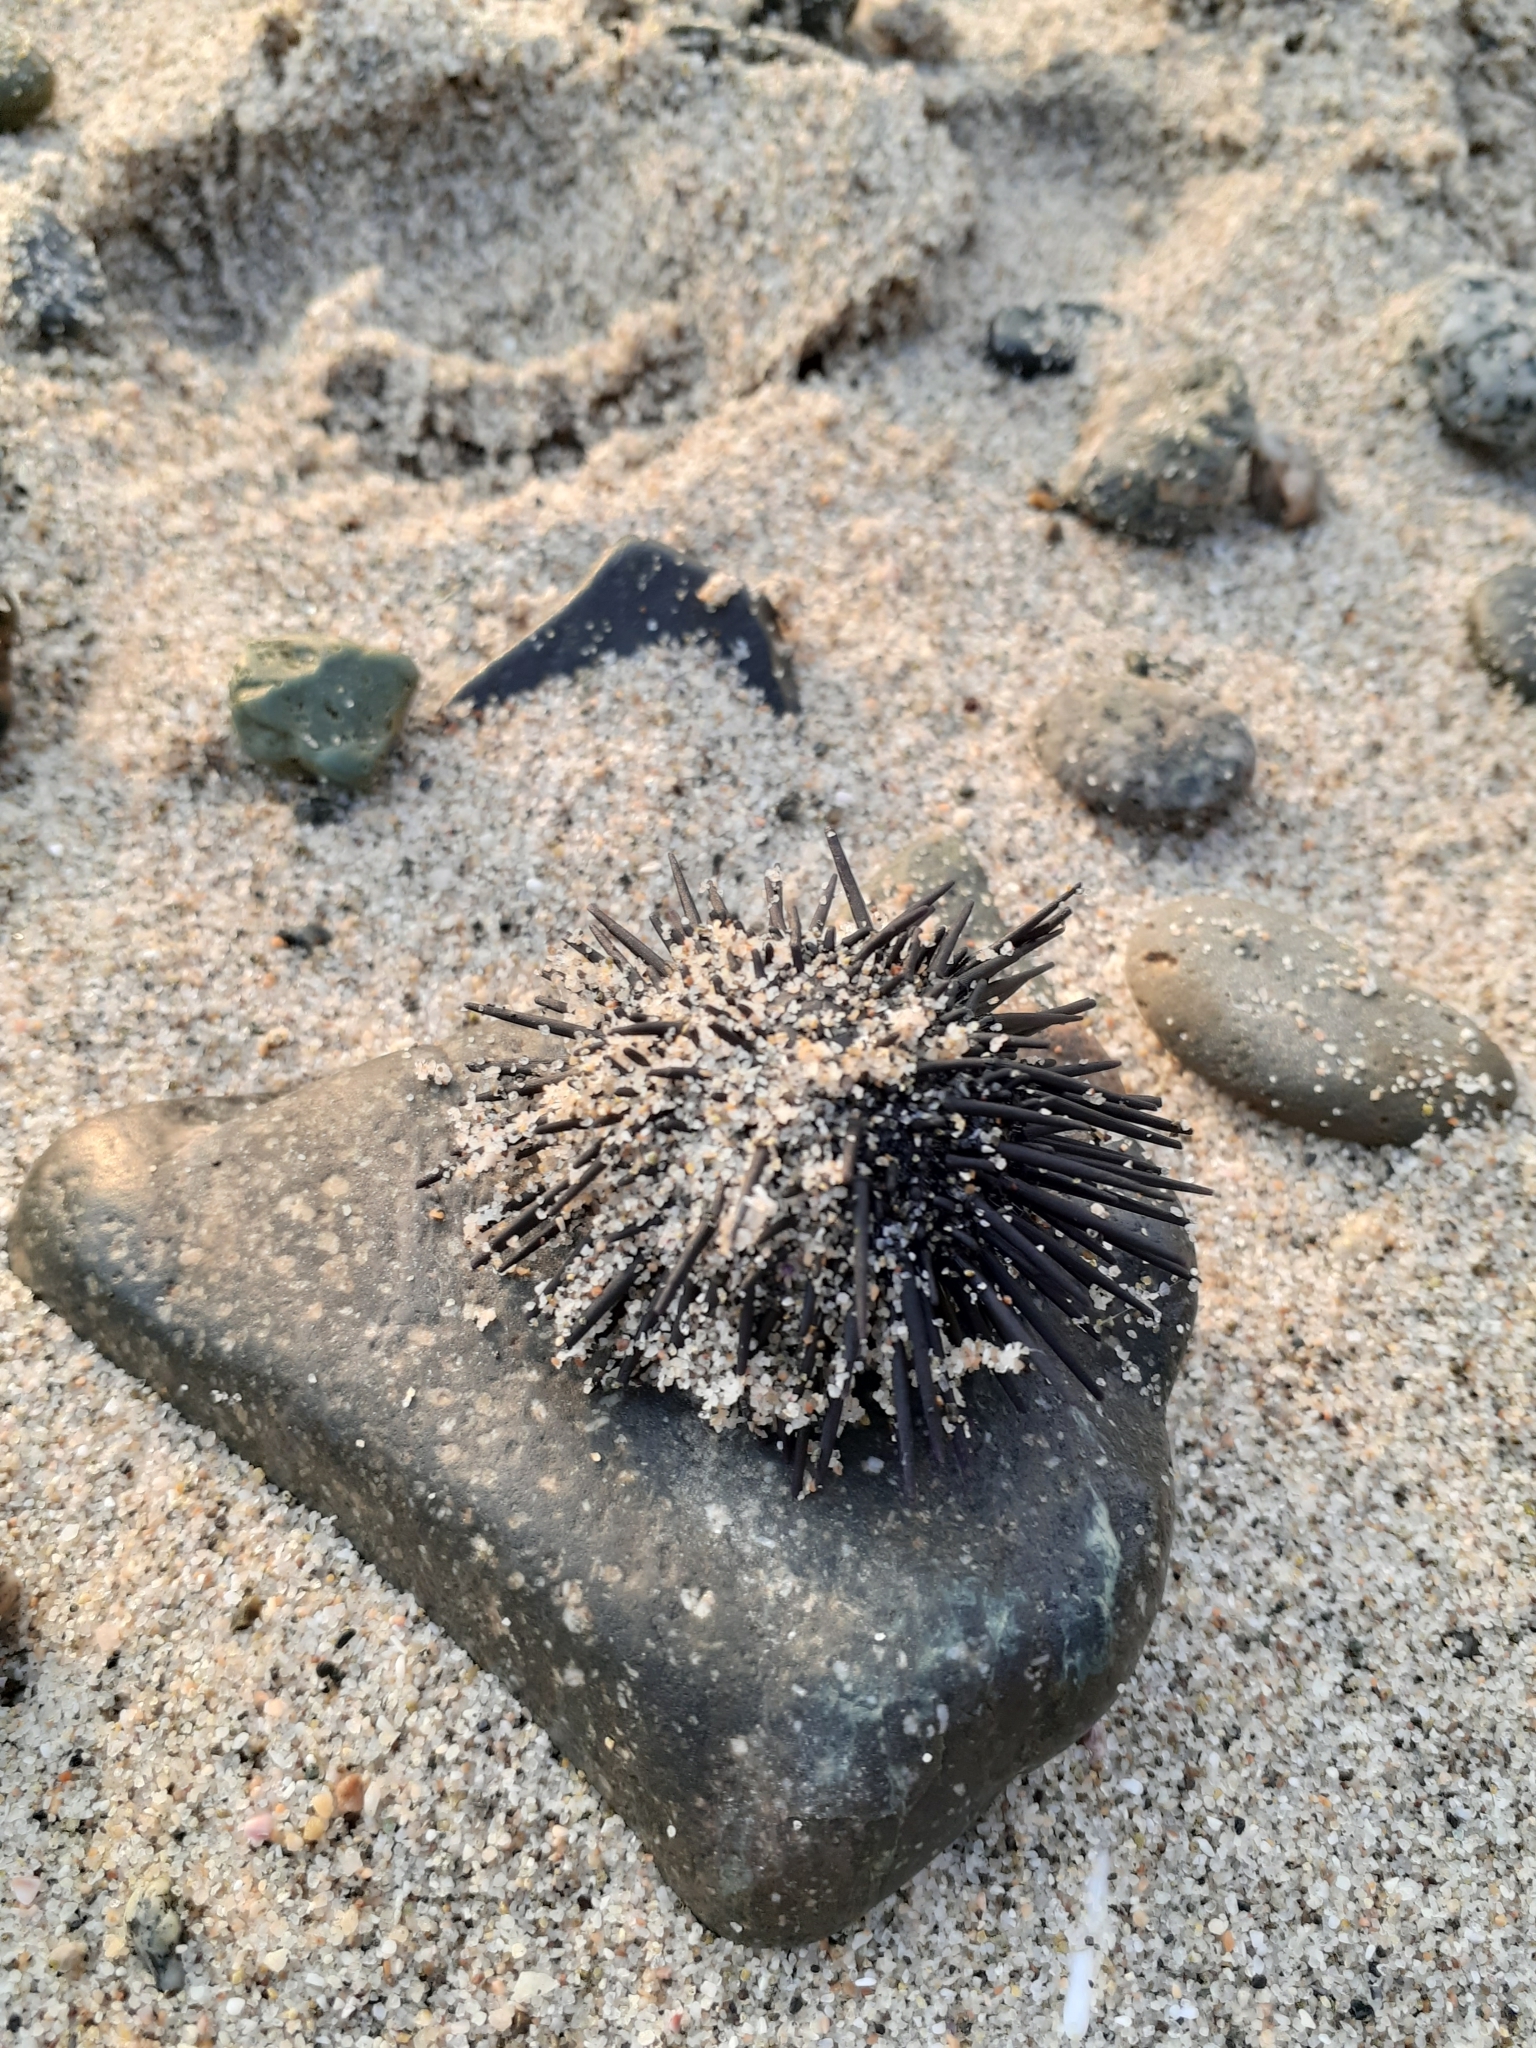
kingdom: Animalia
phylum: Echinodermata
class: Echinoidea
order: Arbacioida
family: Arbaciidae
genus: Tetrapygus
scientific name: Tetrapygus niger
